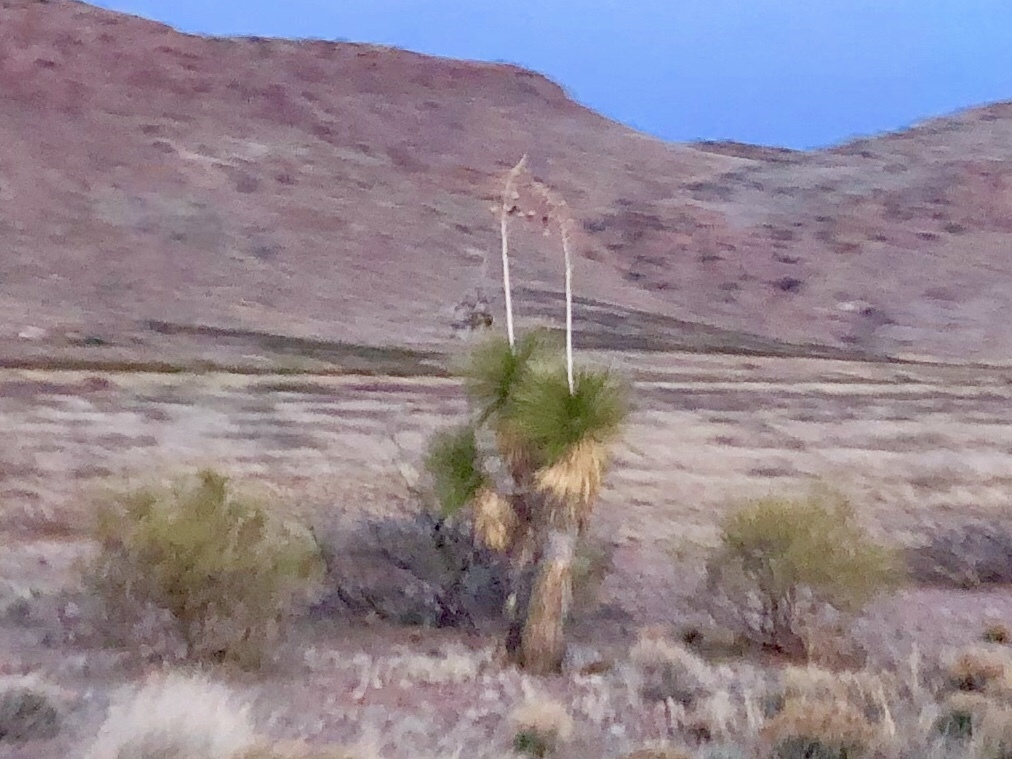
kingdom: Plantae
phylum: Tracheophyta
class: Liliopsida
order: Asparagales
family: Asparagaceae
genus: Yucca
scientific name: Yucca elata
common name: Palmella
